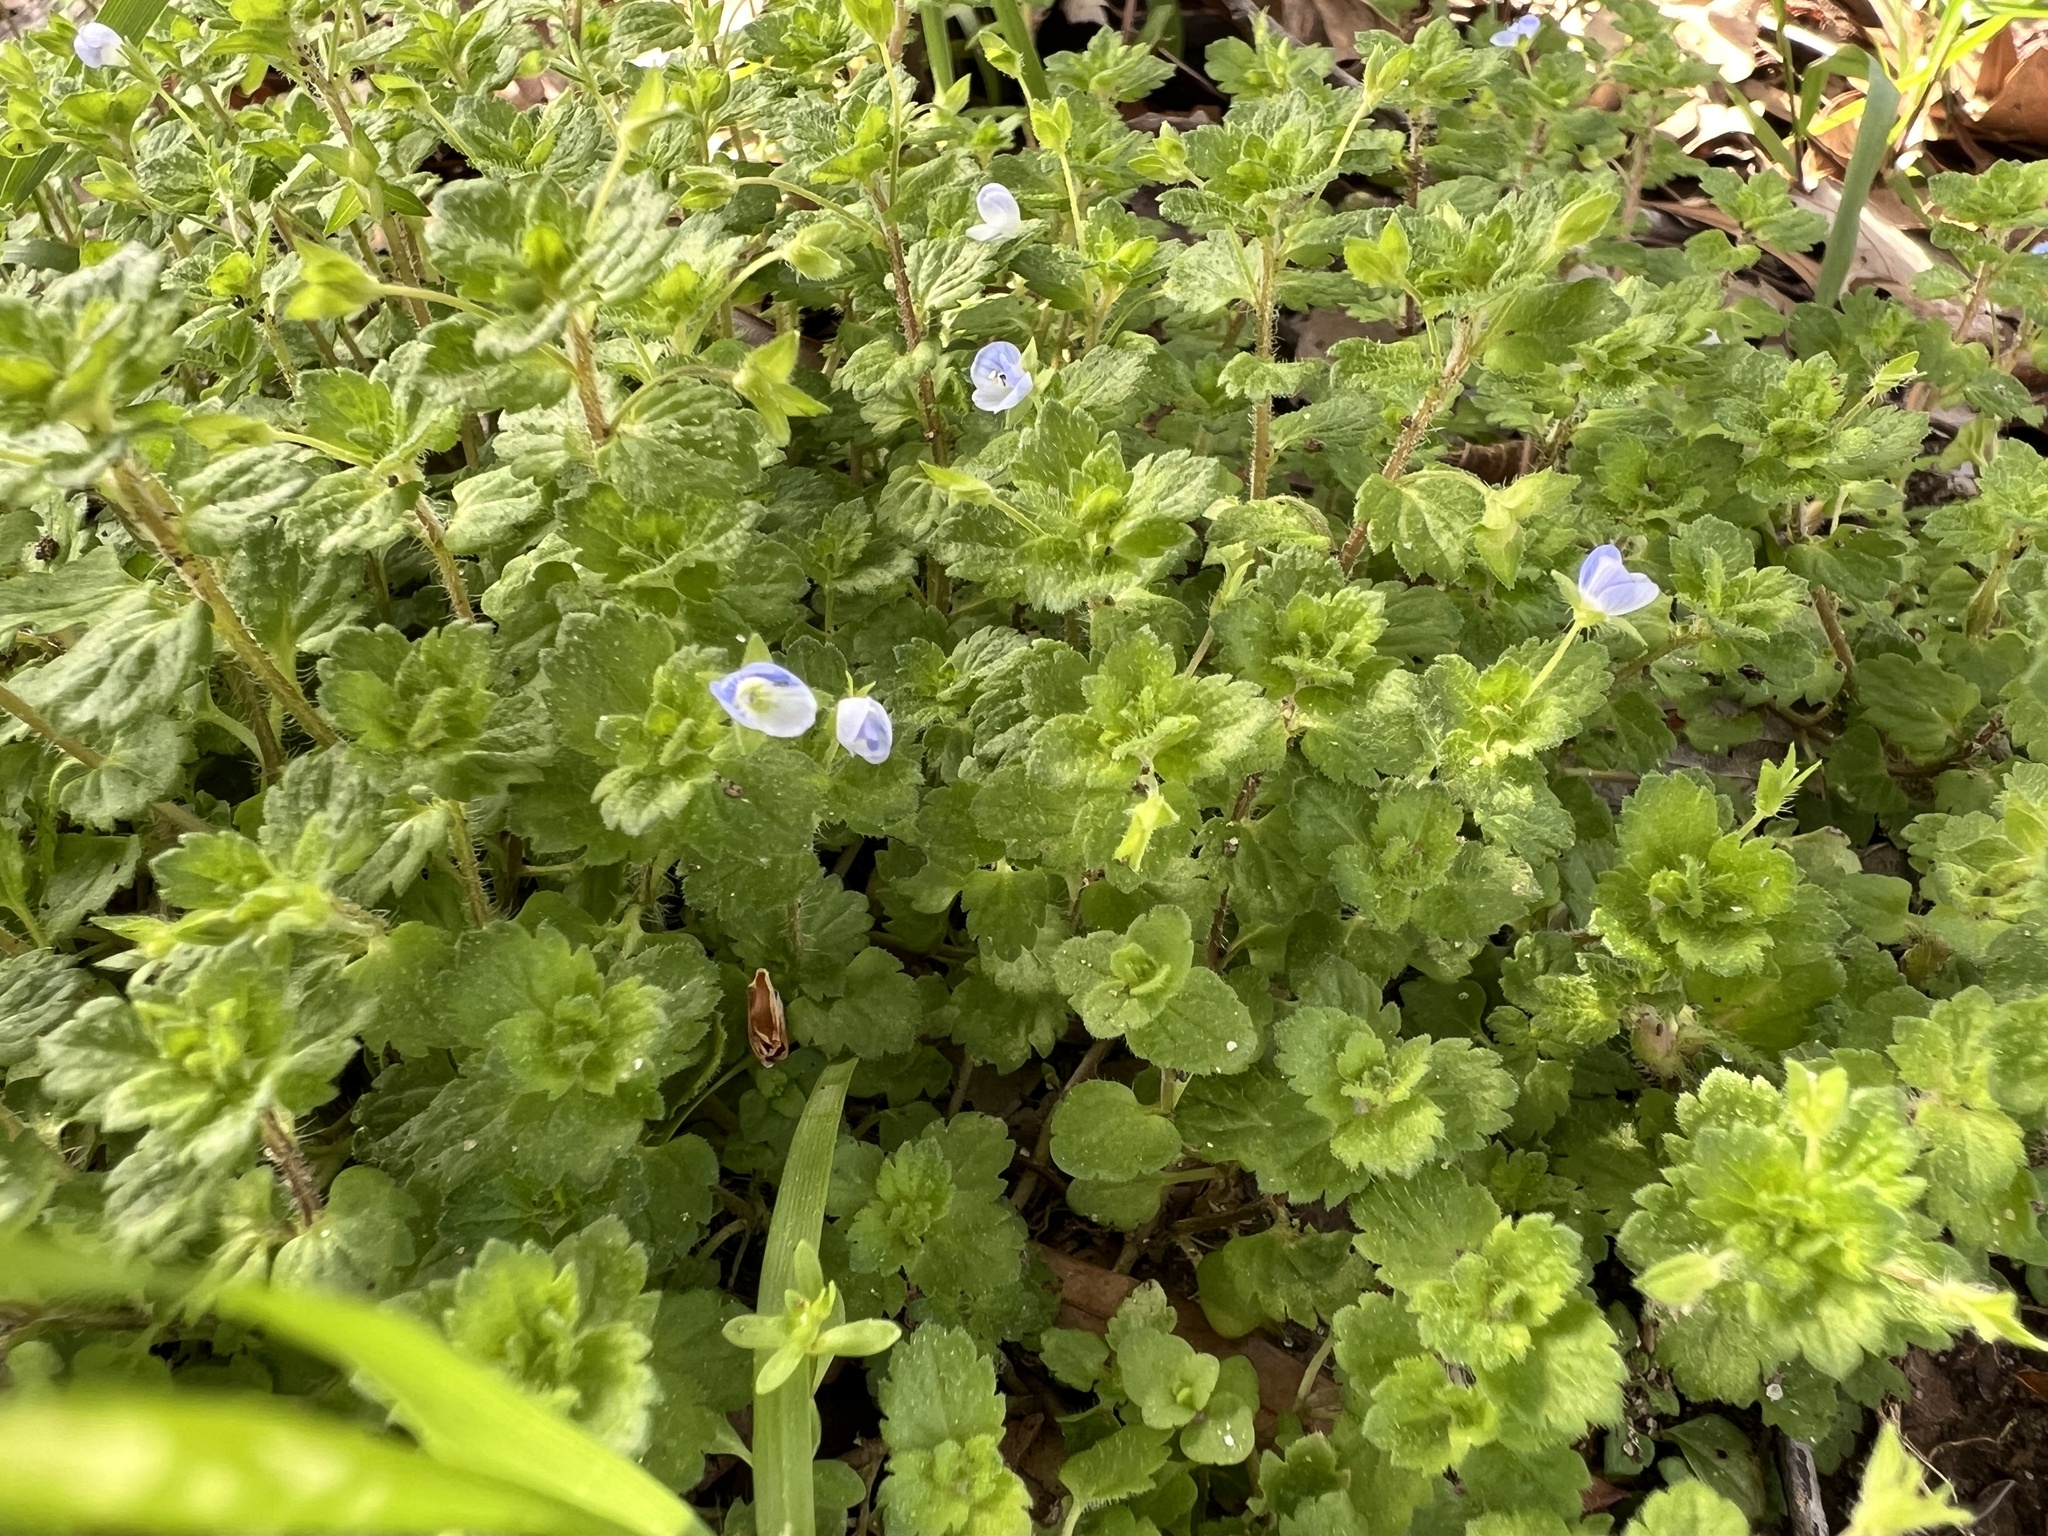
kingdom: Plantae
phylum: Tracheophyta
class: Magnoliopsida
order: Lamiales
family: Plantaginaceae
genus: Veronica
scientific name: Veronica persica
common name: Common field-speedwell
